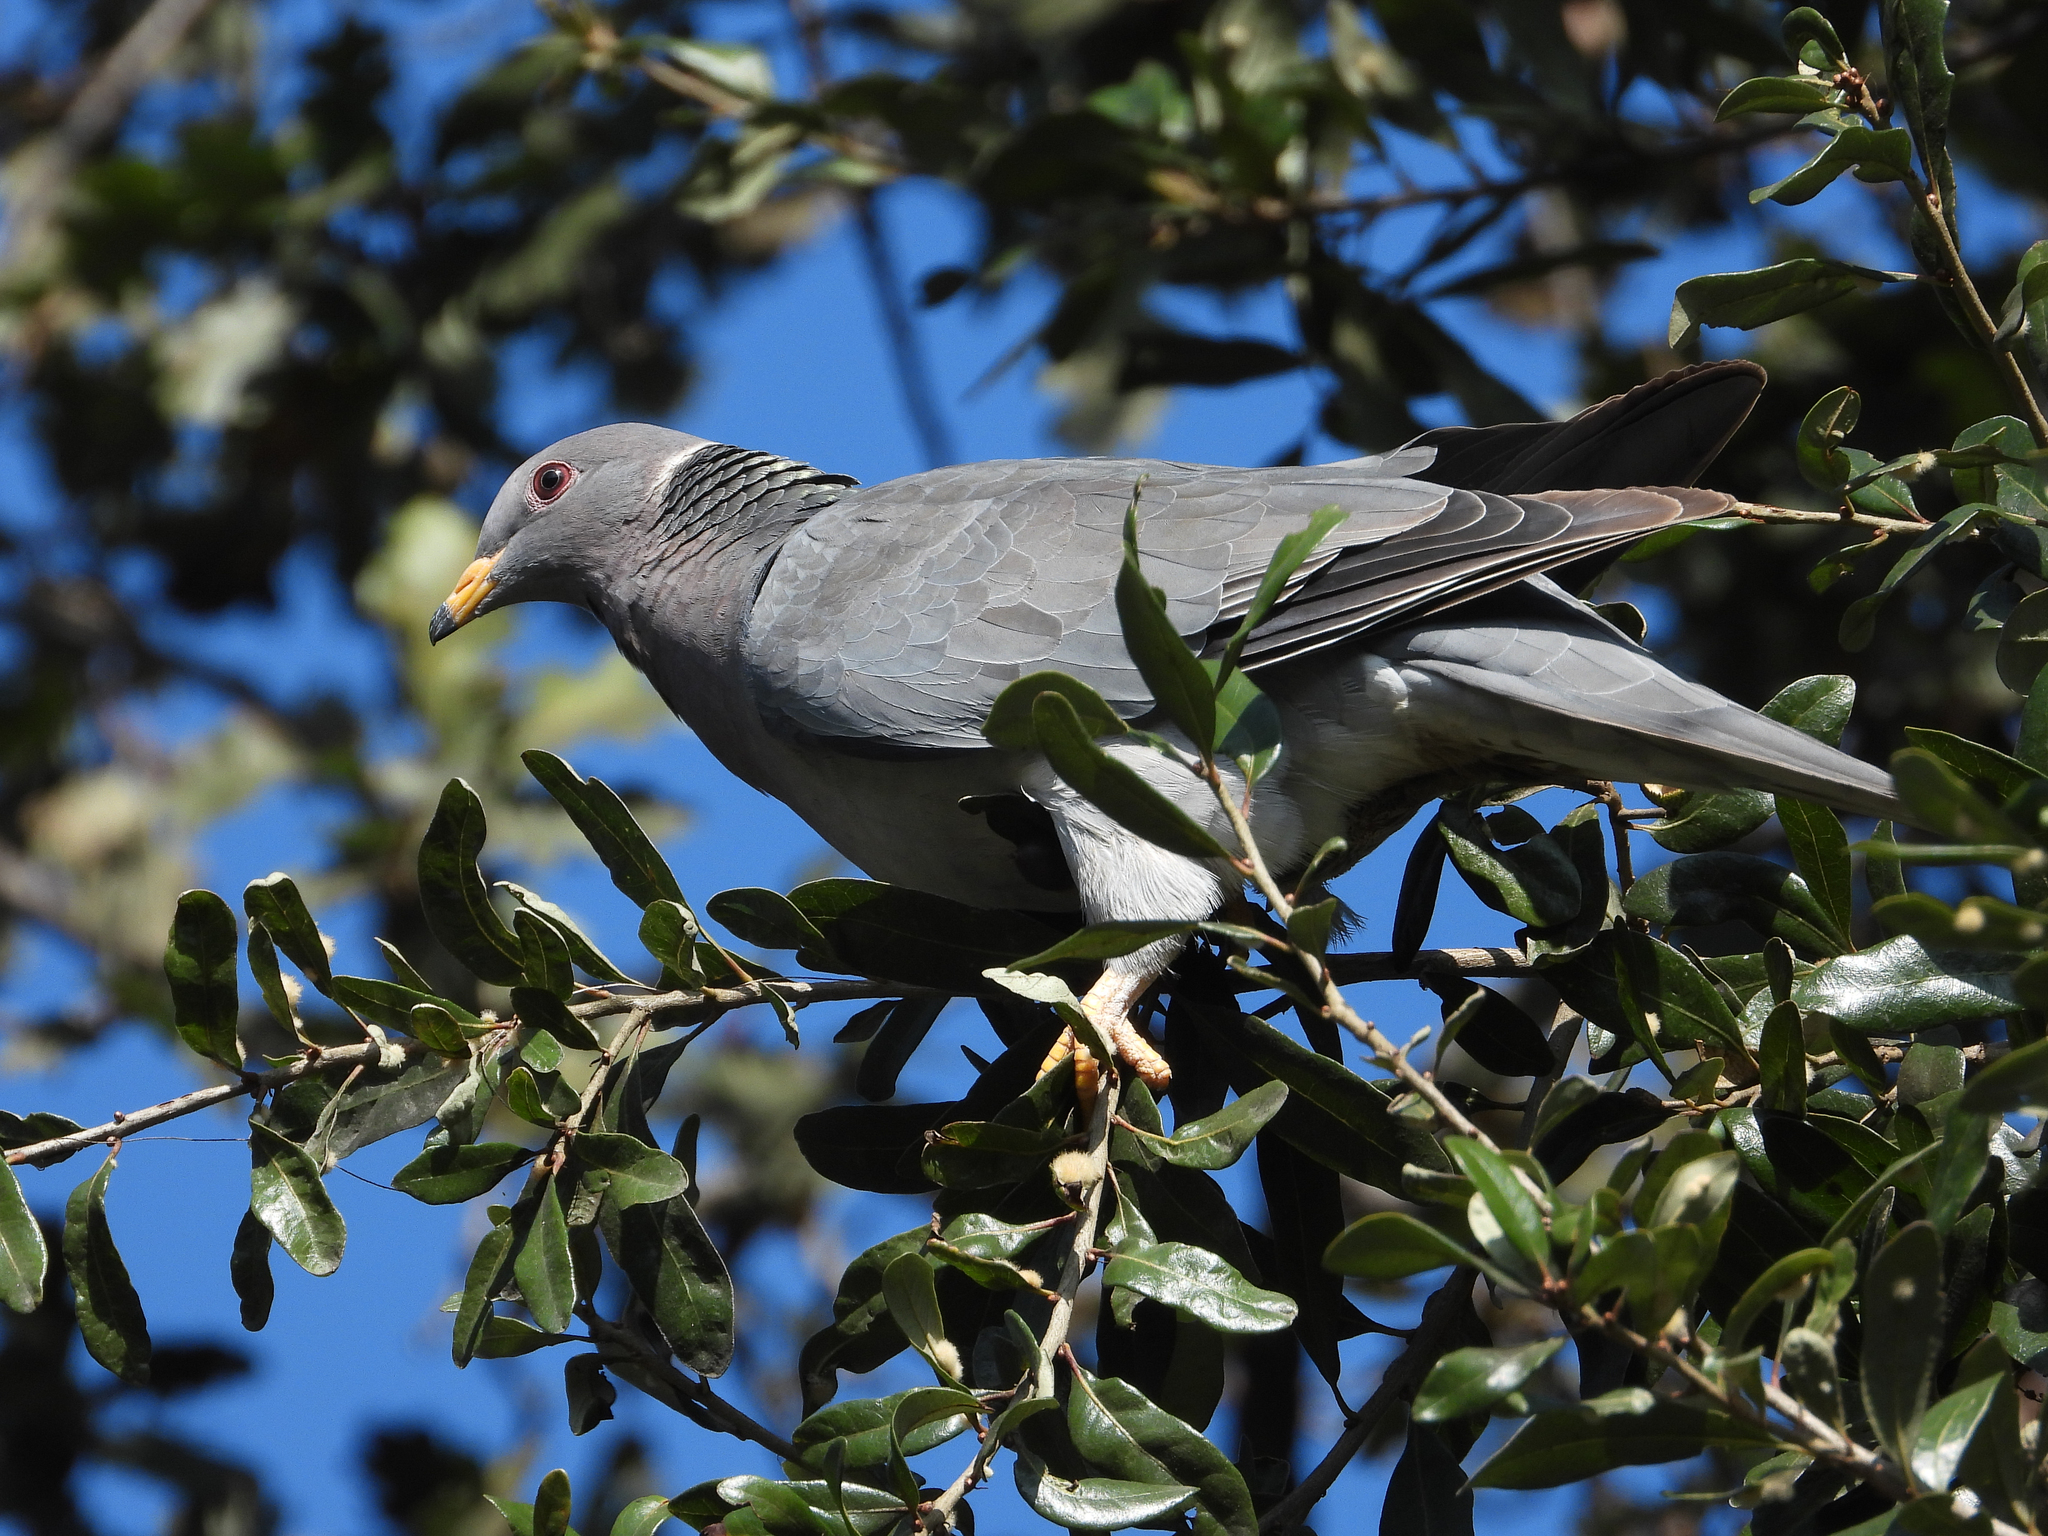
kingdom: Animalia
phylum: Chordata
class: Aves
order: Columbiformes
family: Columbidae
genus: Patagioenas
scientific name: Patagioenas fasciata
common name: Band-tailed pigeon
